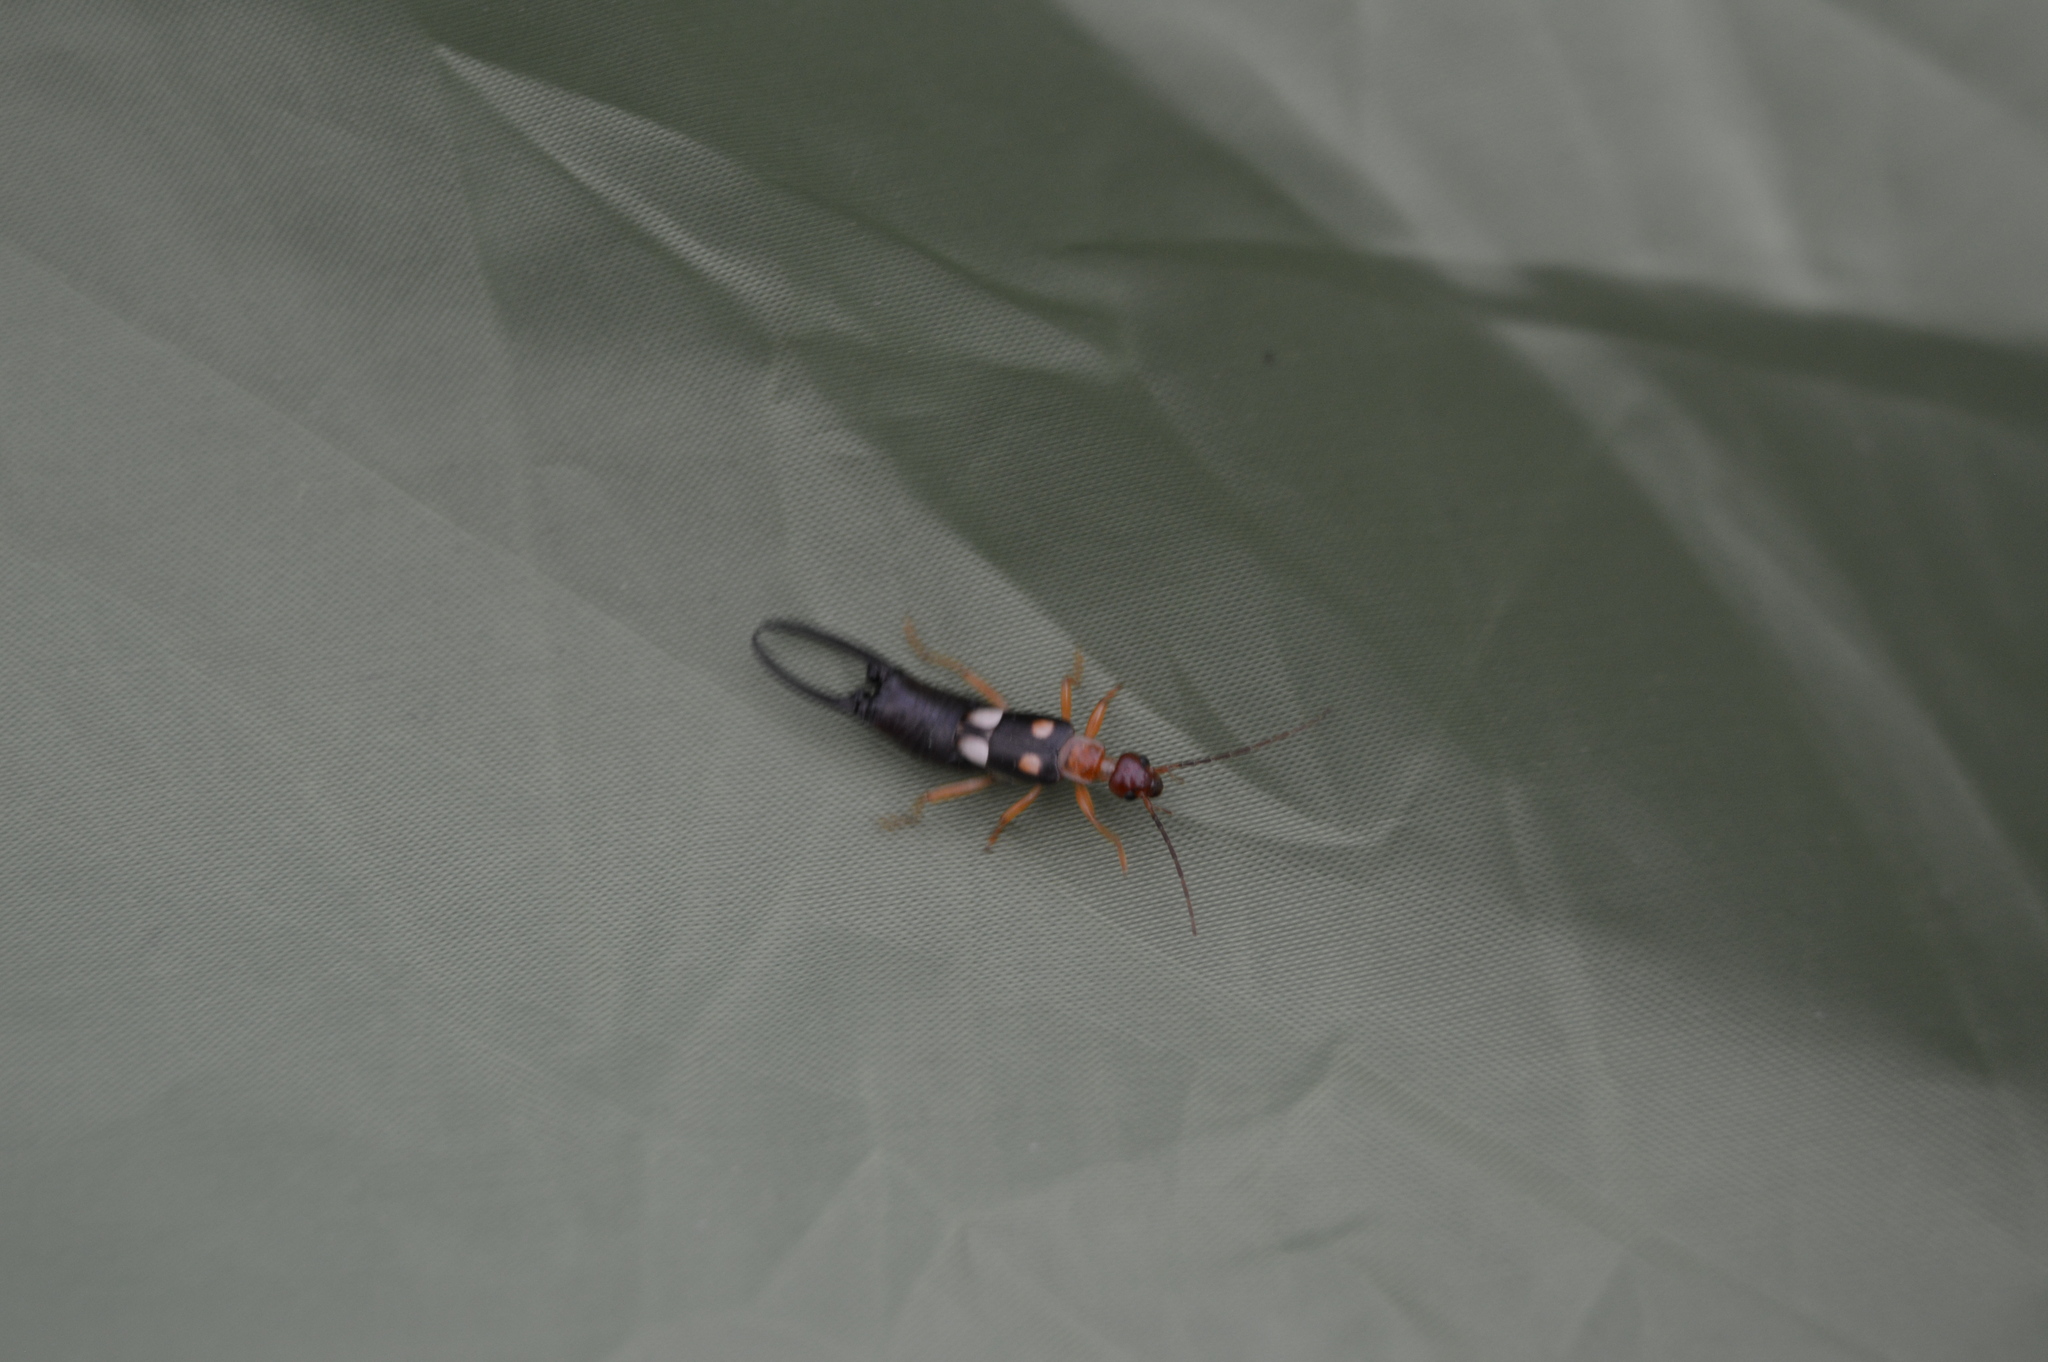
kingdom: Animalia
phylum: Arthropoda
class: Insecta
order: Dermaptera
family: Forficulidae
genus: Forficula
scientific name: Forficula smyrnensis
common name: Smyrna earwig
